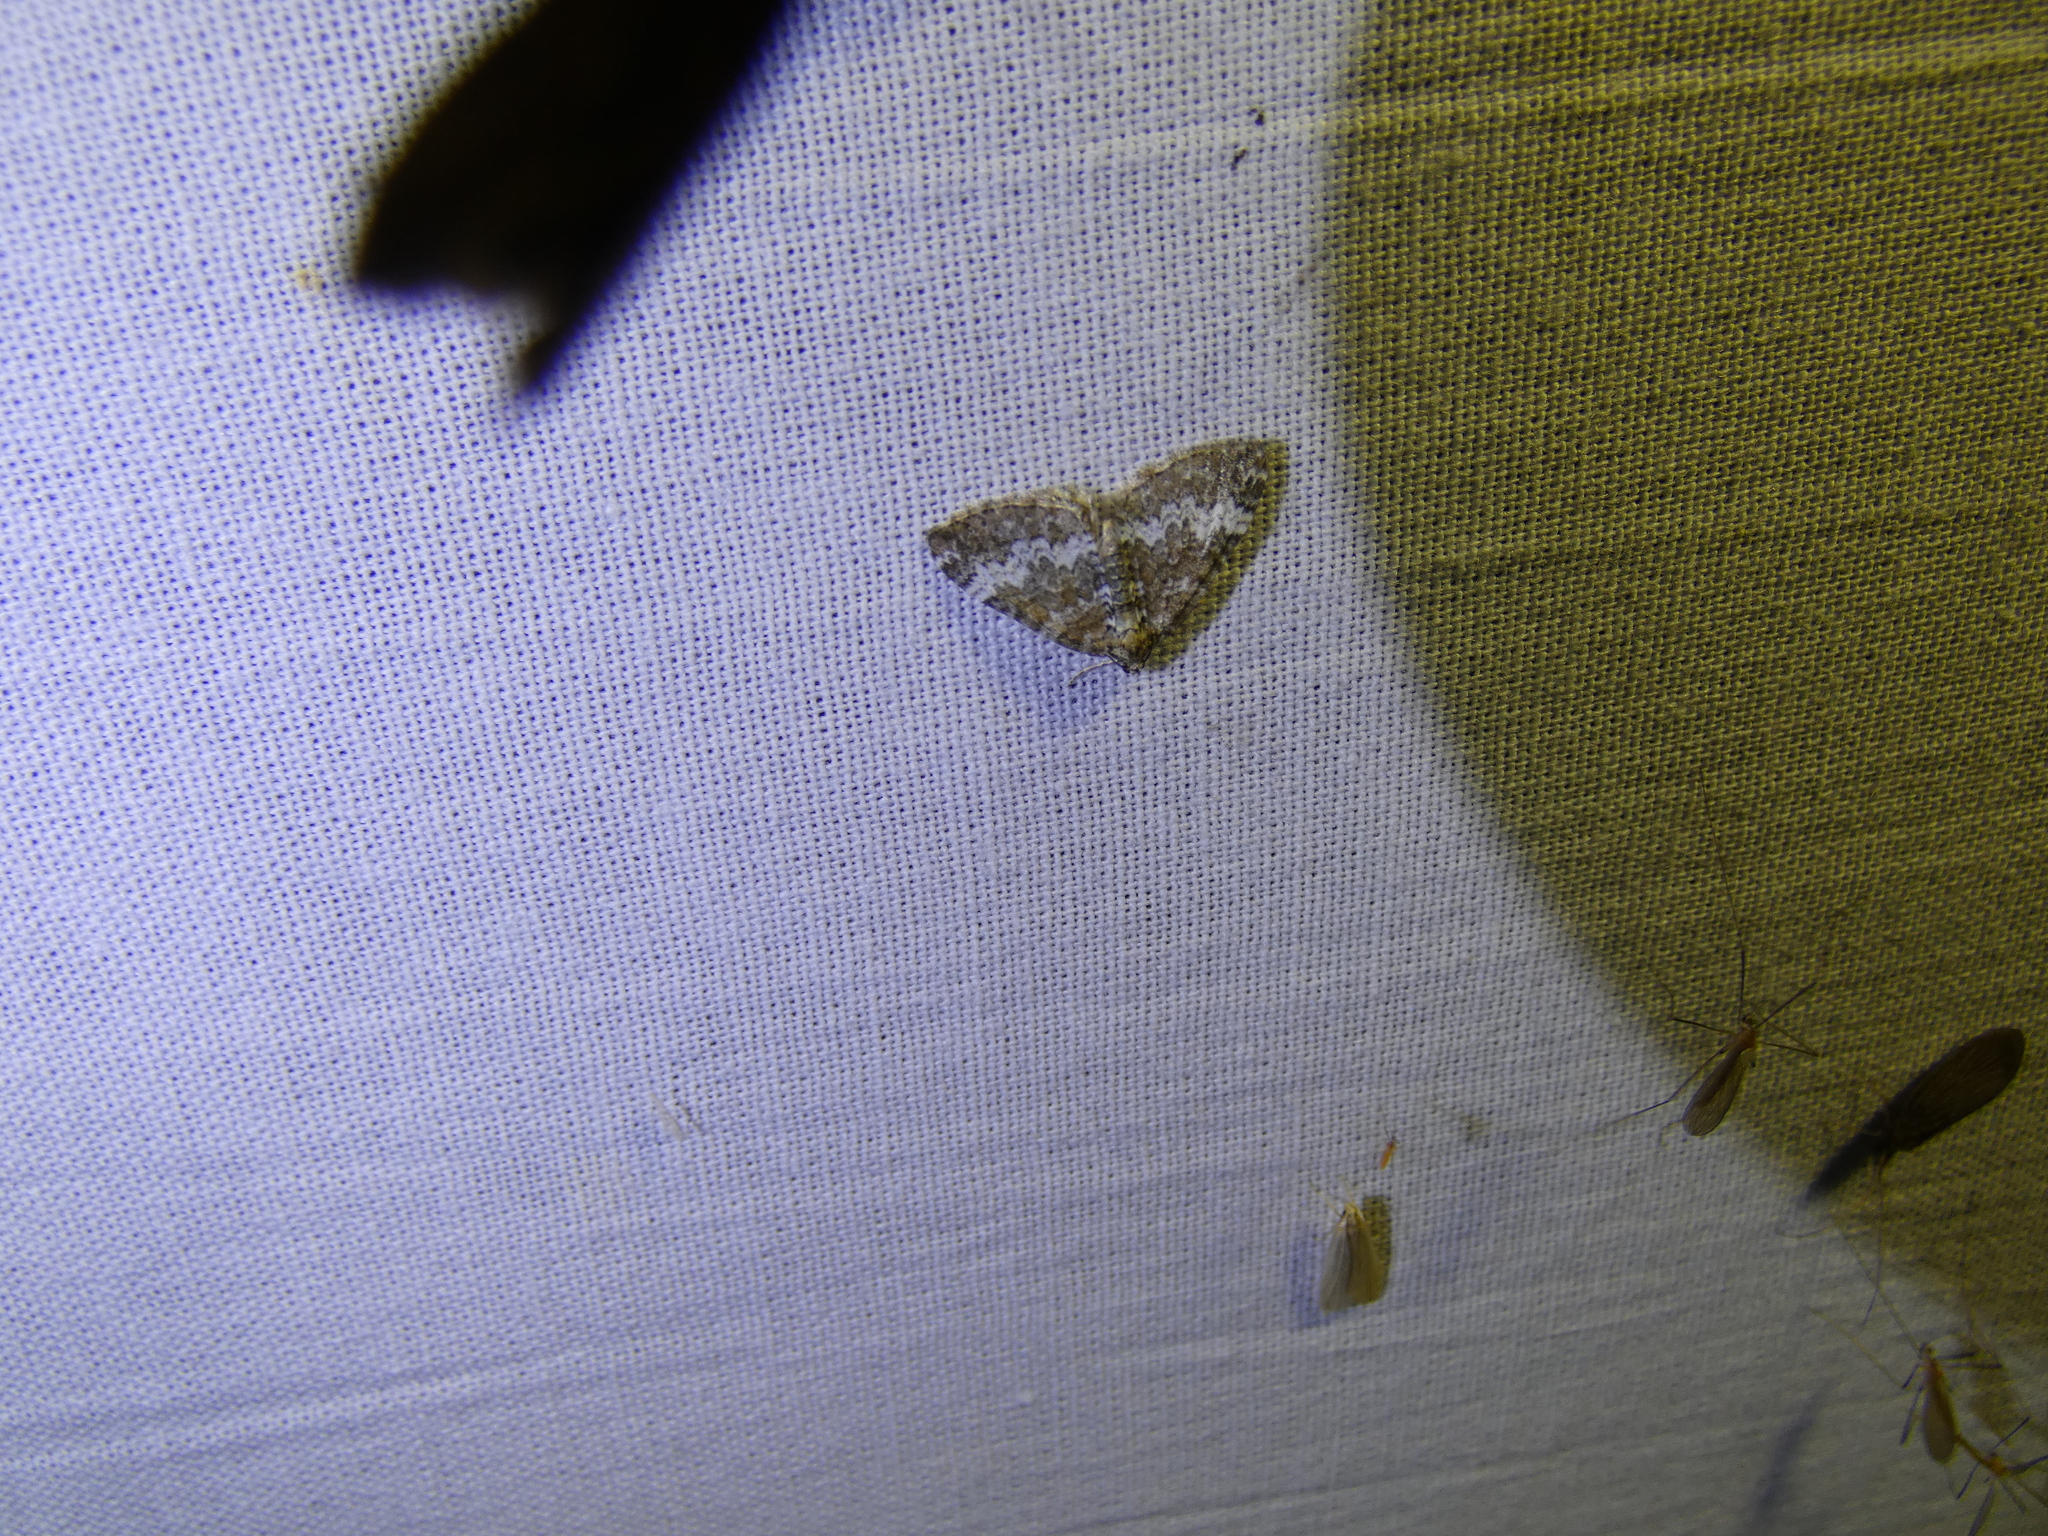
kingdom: Animalia
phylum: Arthropoda
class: Insecta
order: Lepidoptera
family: Geometridae
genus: Perizoma
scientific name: Perizoma alchemillata
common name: Small rivulet
